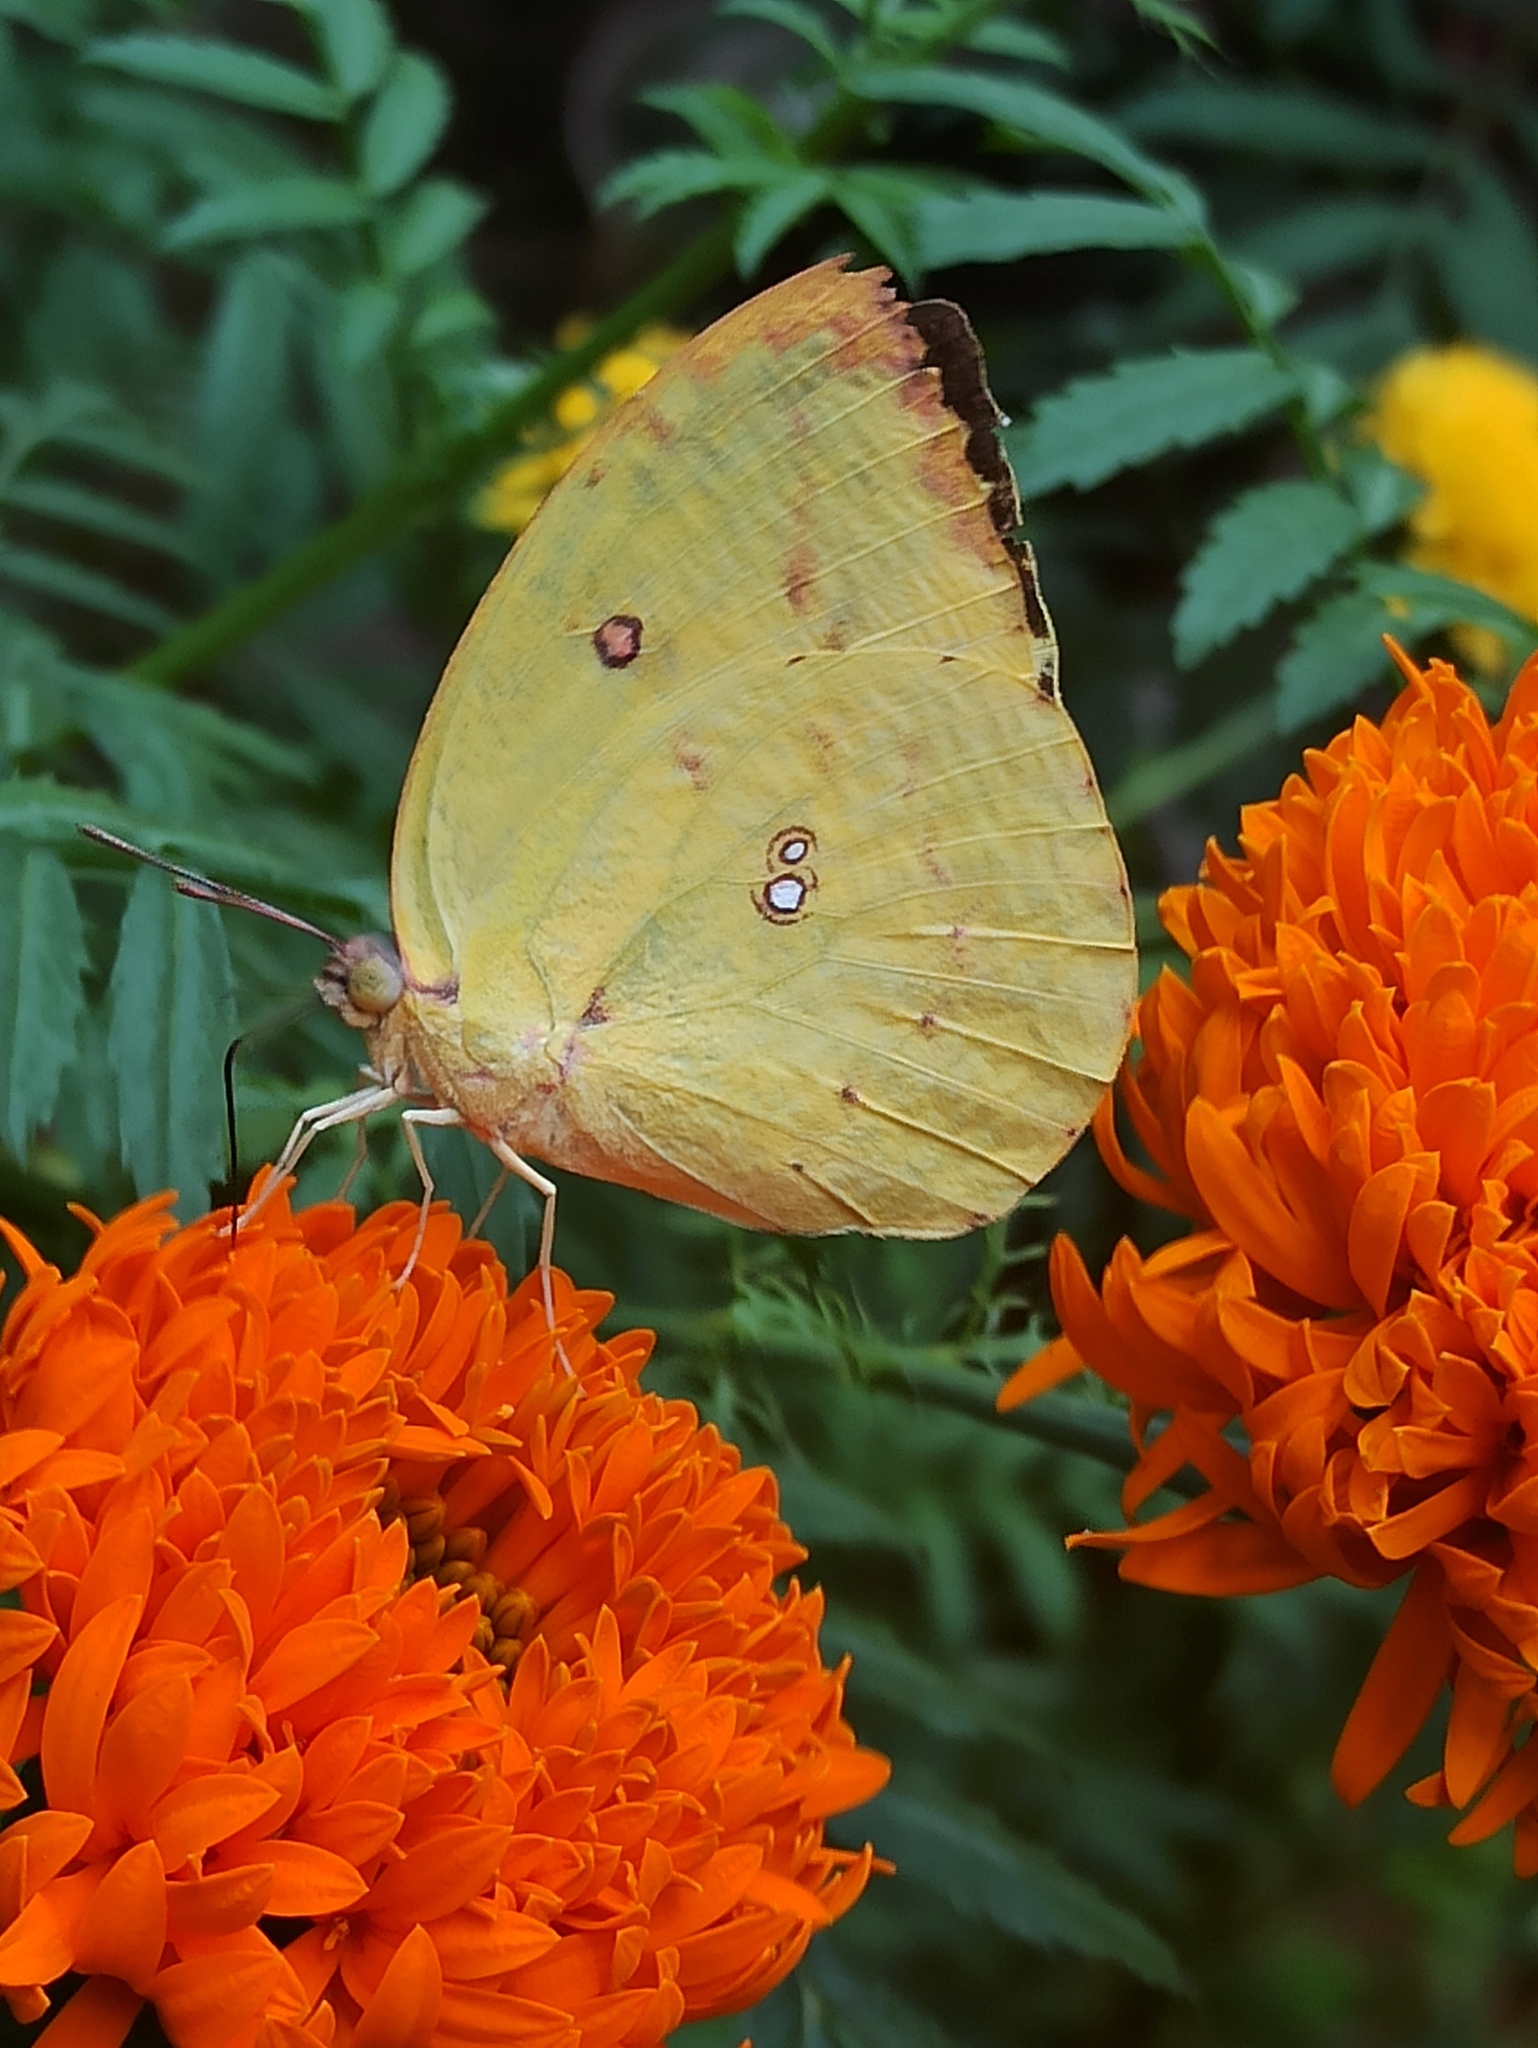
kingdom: Animalia
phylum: Arthropoda
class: Insecta
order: Lepidoptera
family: Pieridae
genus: Catopsilia
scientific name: Catopsilia pomona
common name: Common emigrant
